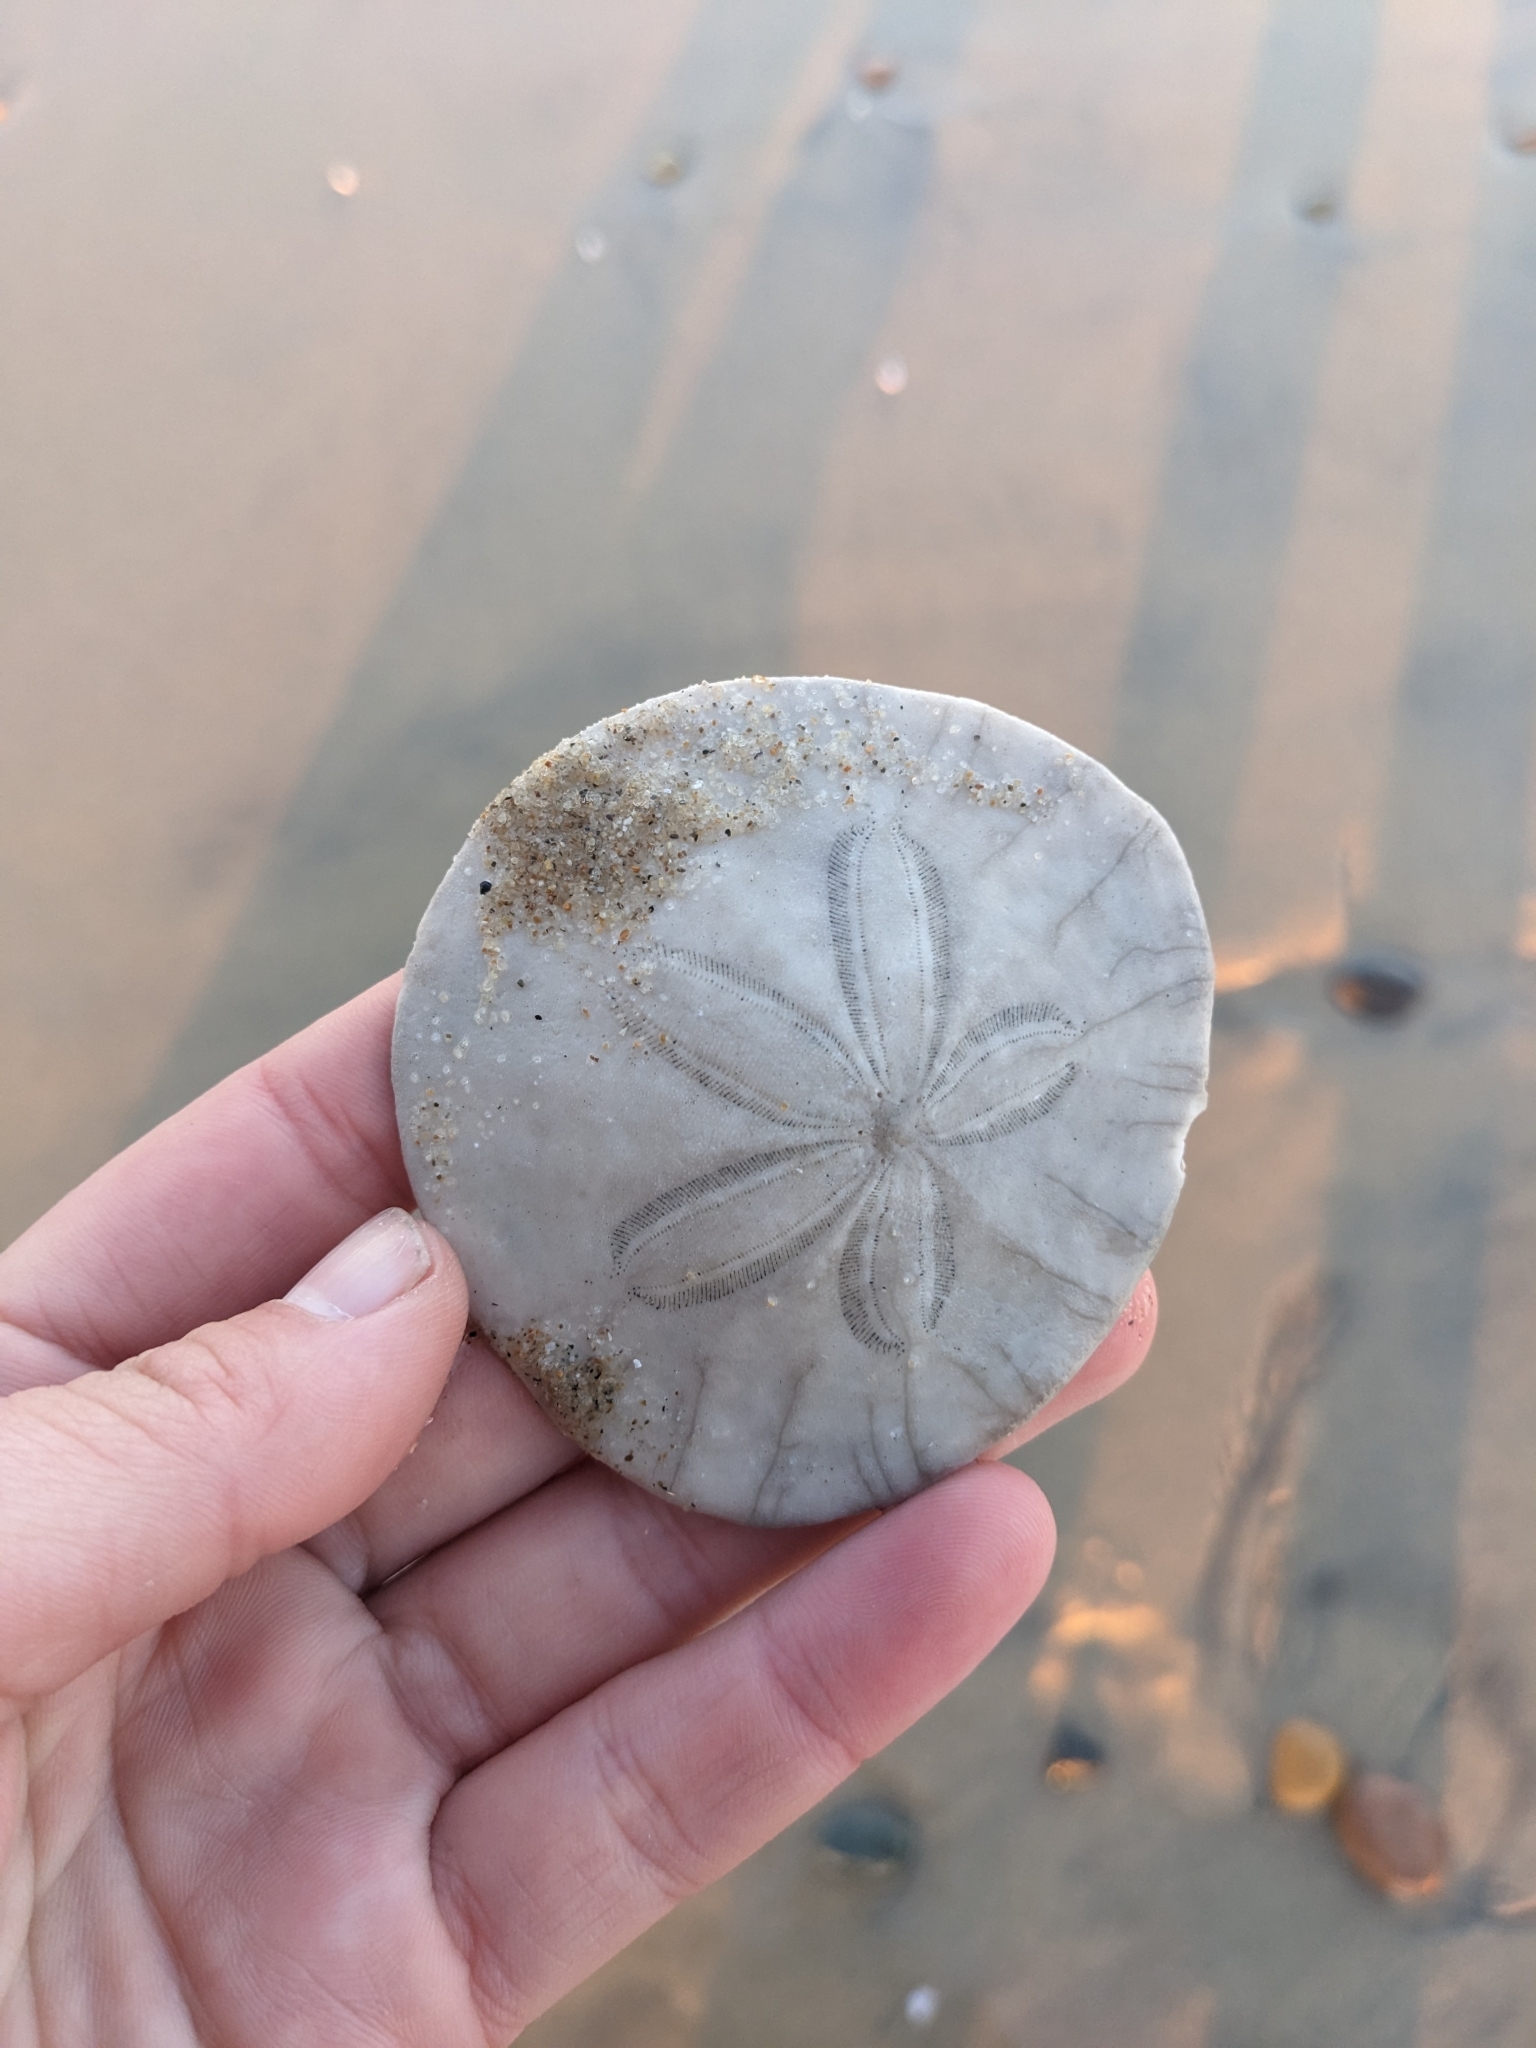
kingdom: Animalia
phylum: Echinodermata
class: Echinoidea
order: Echinolampadacea
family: Dendrasteridae
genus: Dendraster
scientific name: Dendraster excentricus
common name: Eccentric sand dollar sea urchin
